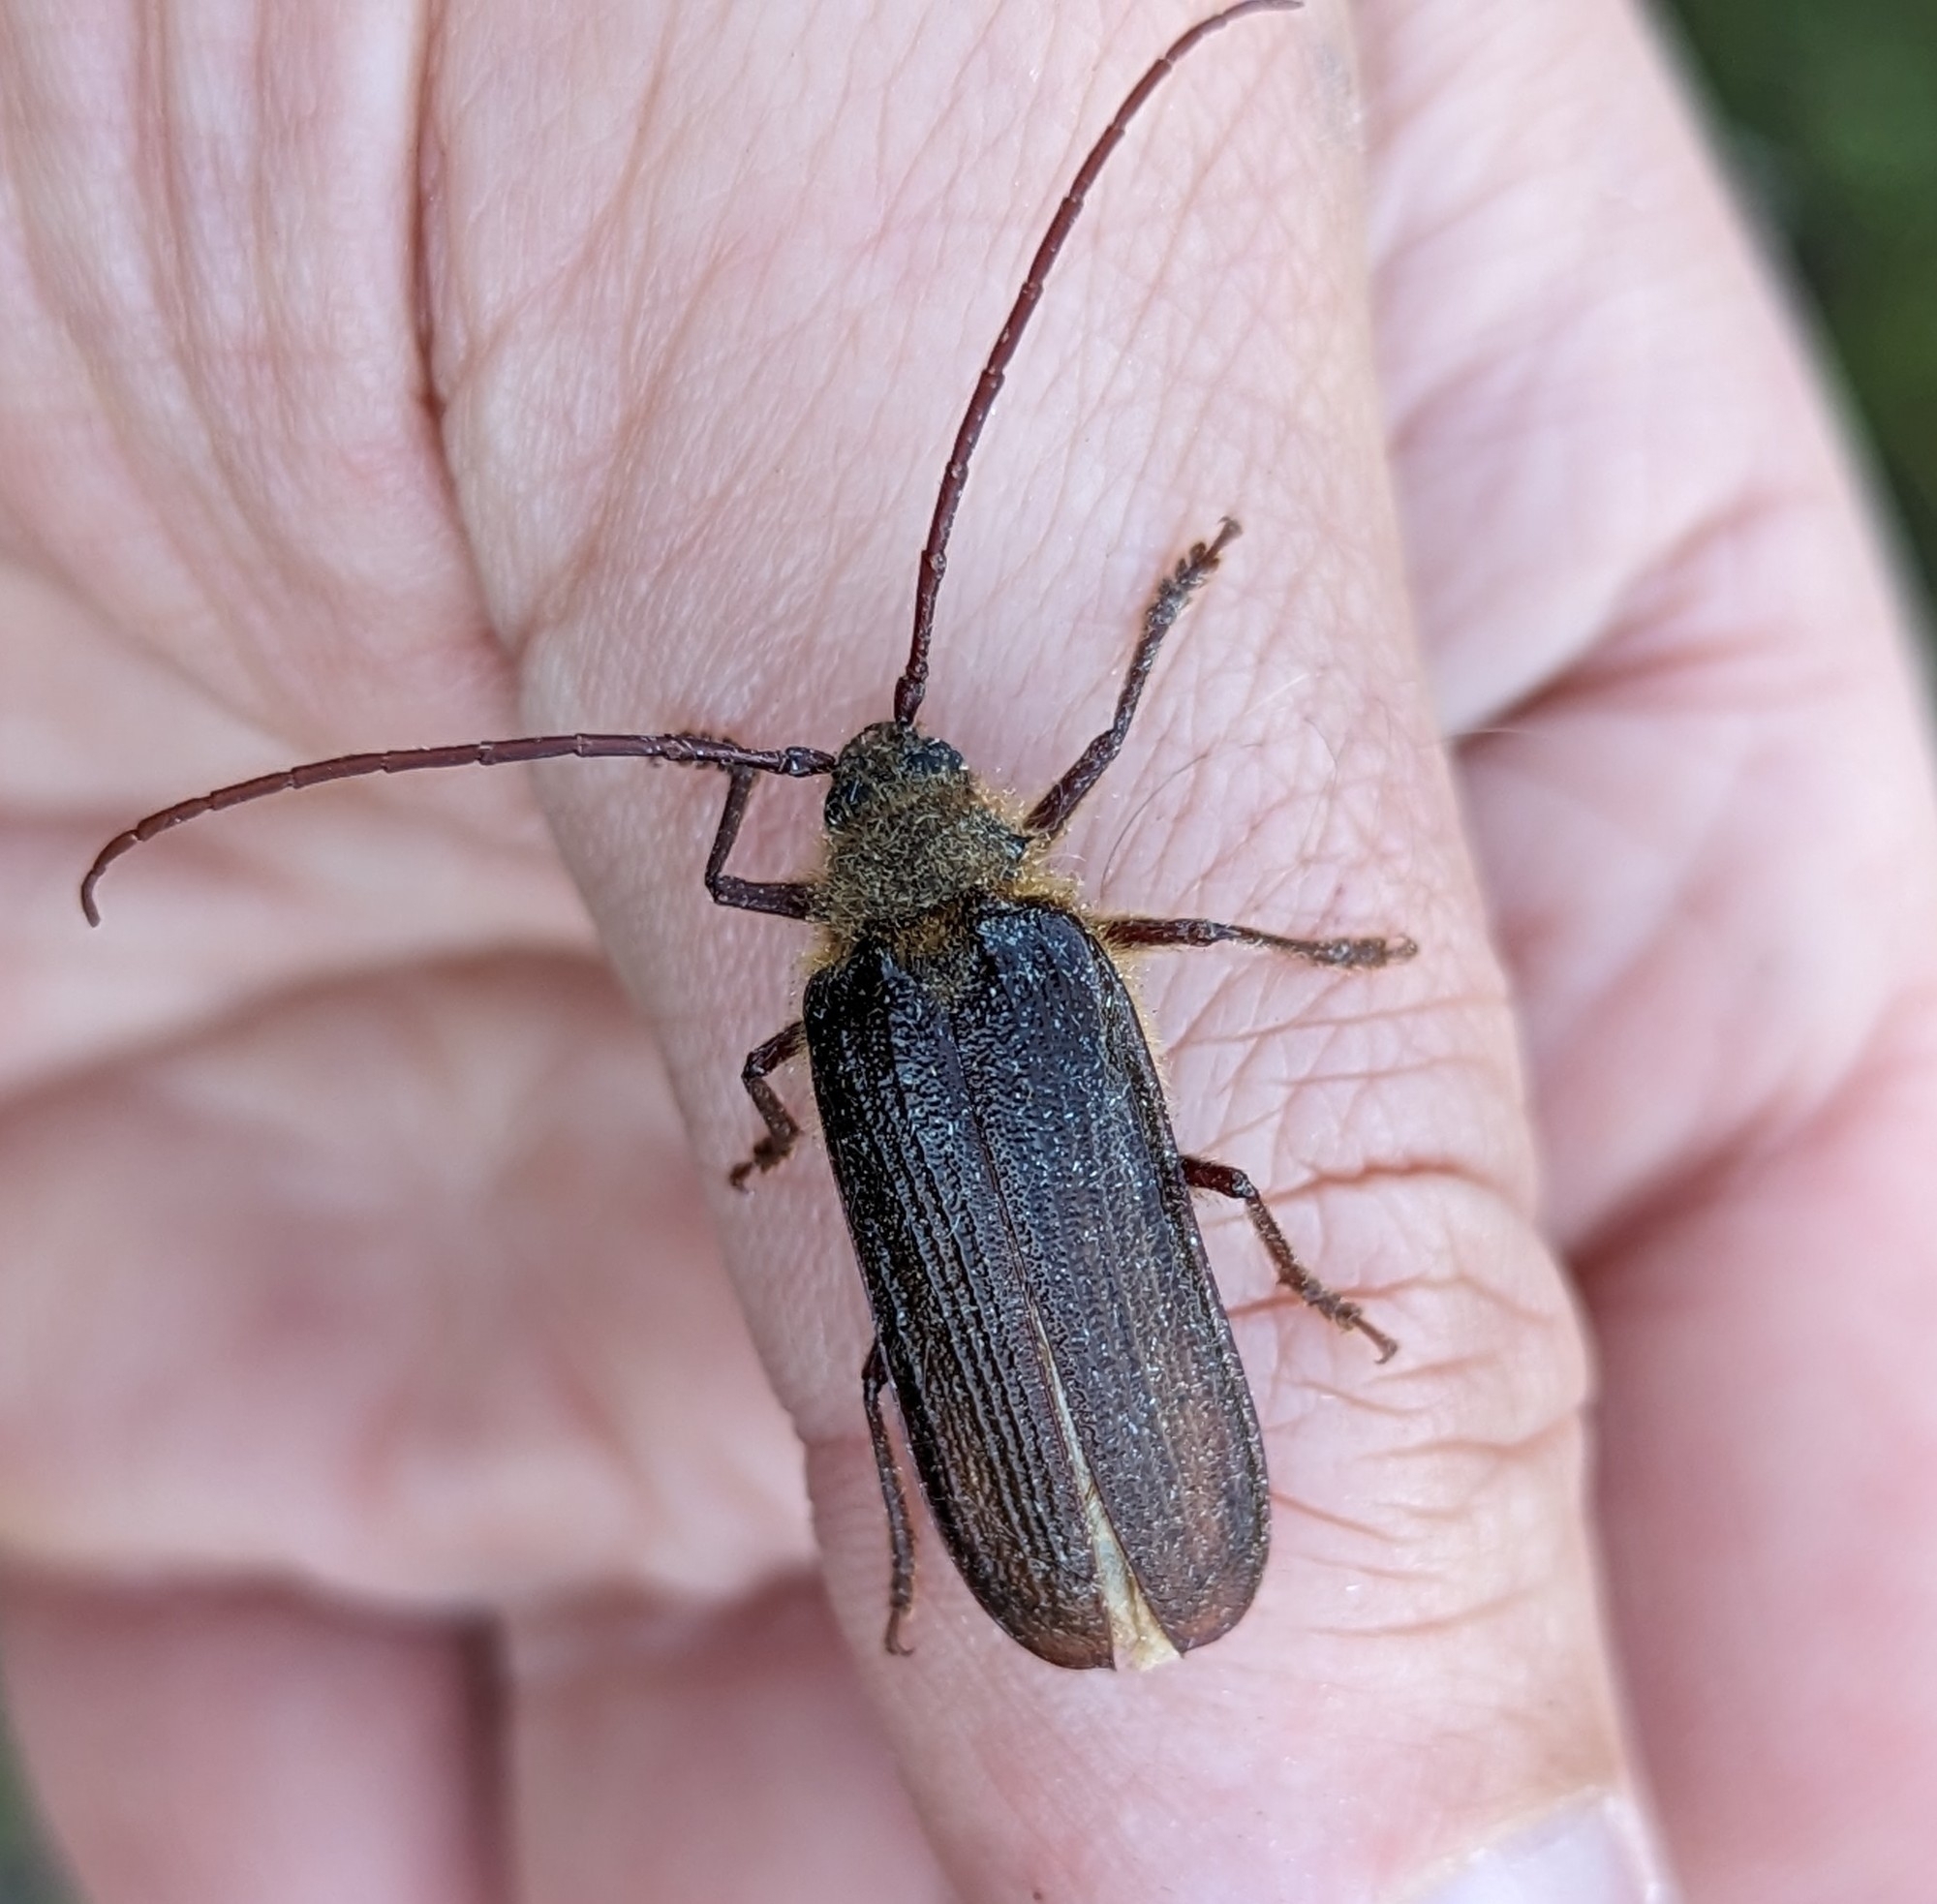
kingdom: Animalia
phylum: Arthropoda
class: Insecta
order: Coleoptera
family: Cerambycidae
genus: Tragosoma
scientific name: Tragosoma harrisii
